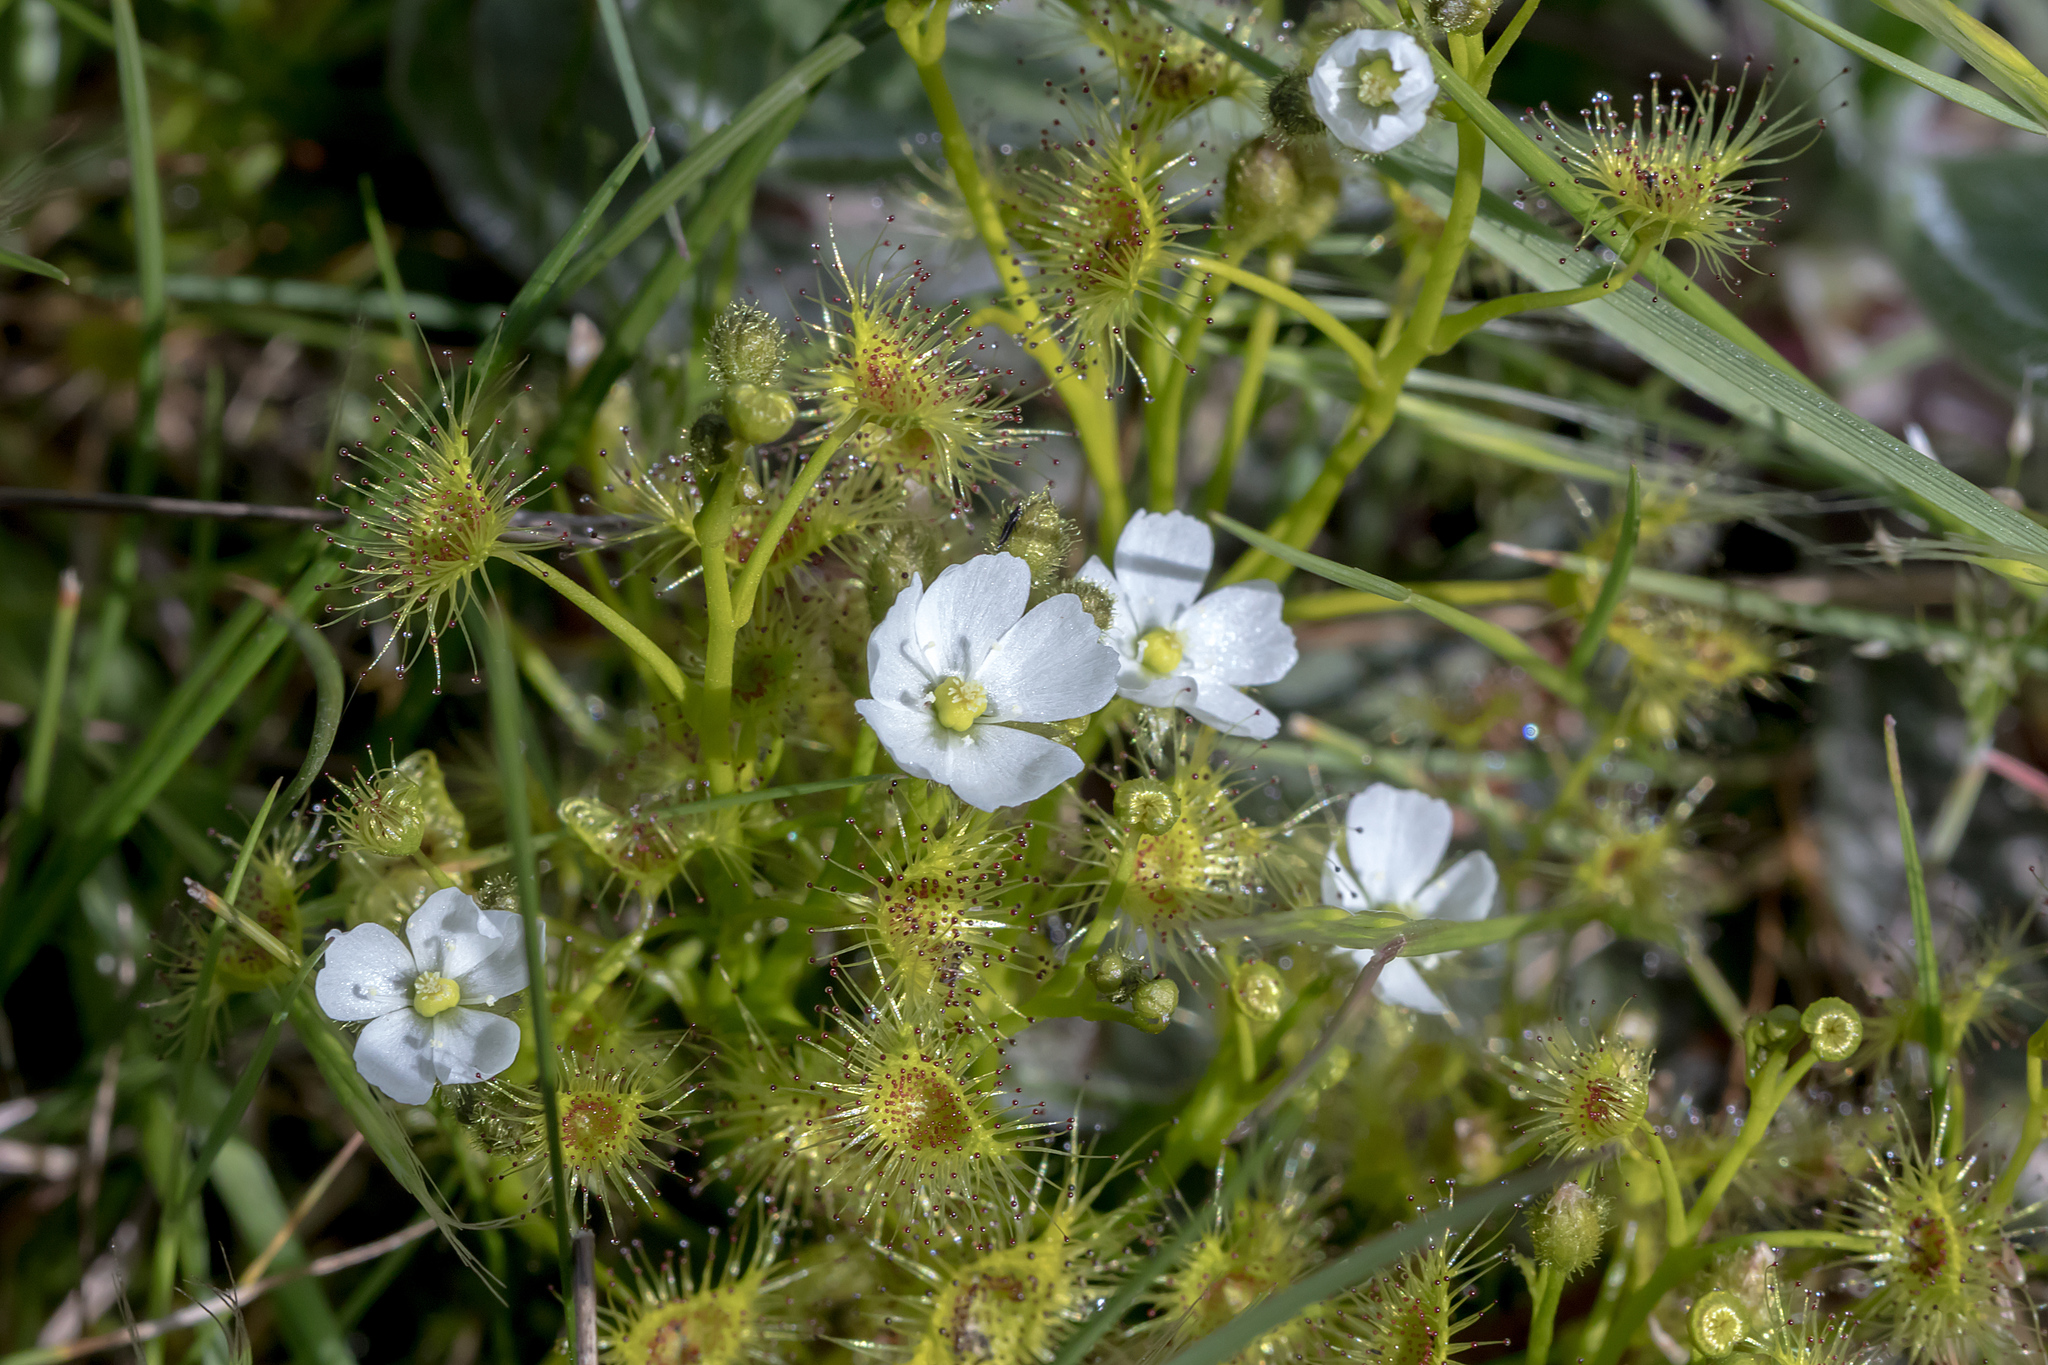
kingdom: Plantae
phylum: Tracheophyta
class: Magnoliopsida
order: Caryophyllales
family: Droseraceae
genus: Drosera
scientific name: Drosera hookeri
